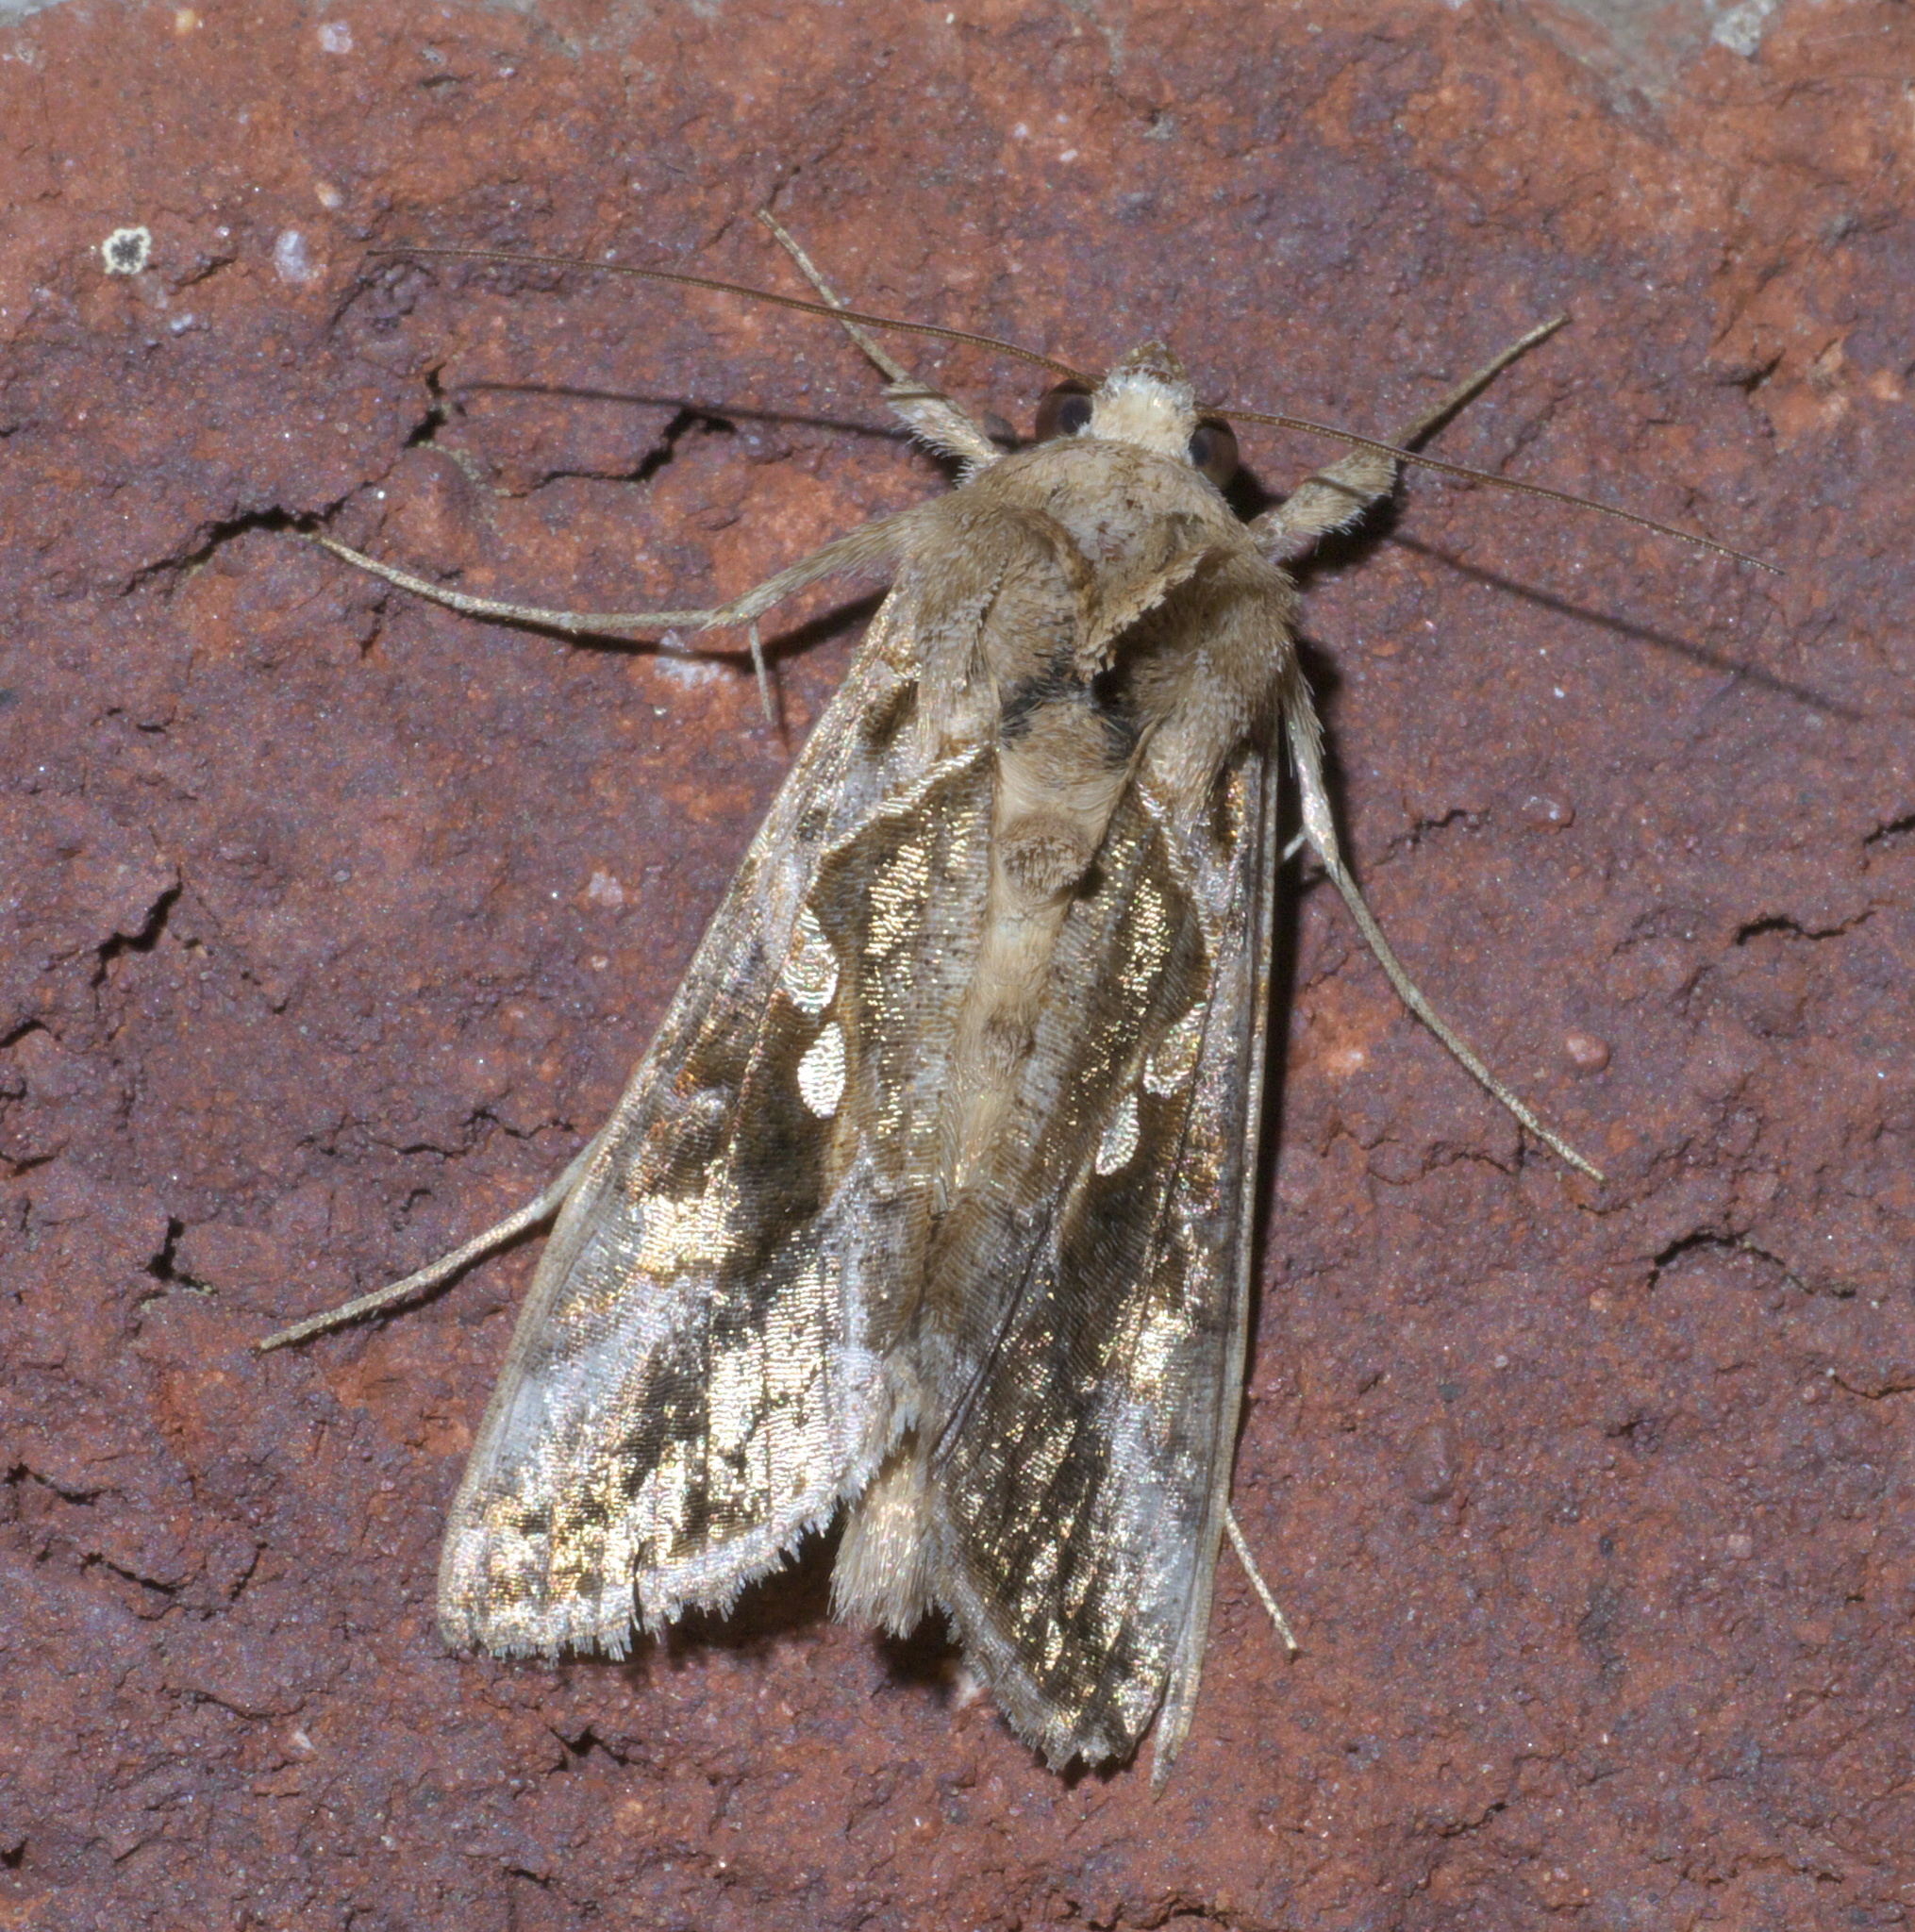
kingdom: Animalia
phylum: Arthropoda
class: Insecta
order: Lepidoptera
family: Noctuidae
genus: Chrysodeixis
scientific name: Chrysodeixis includens
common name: Cutworm moth
